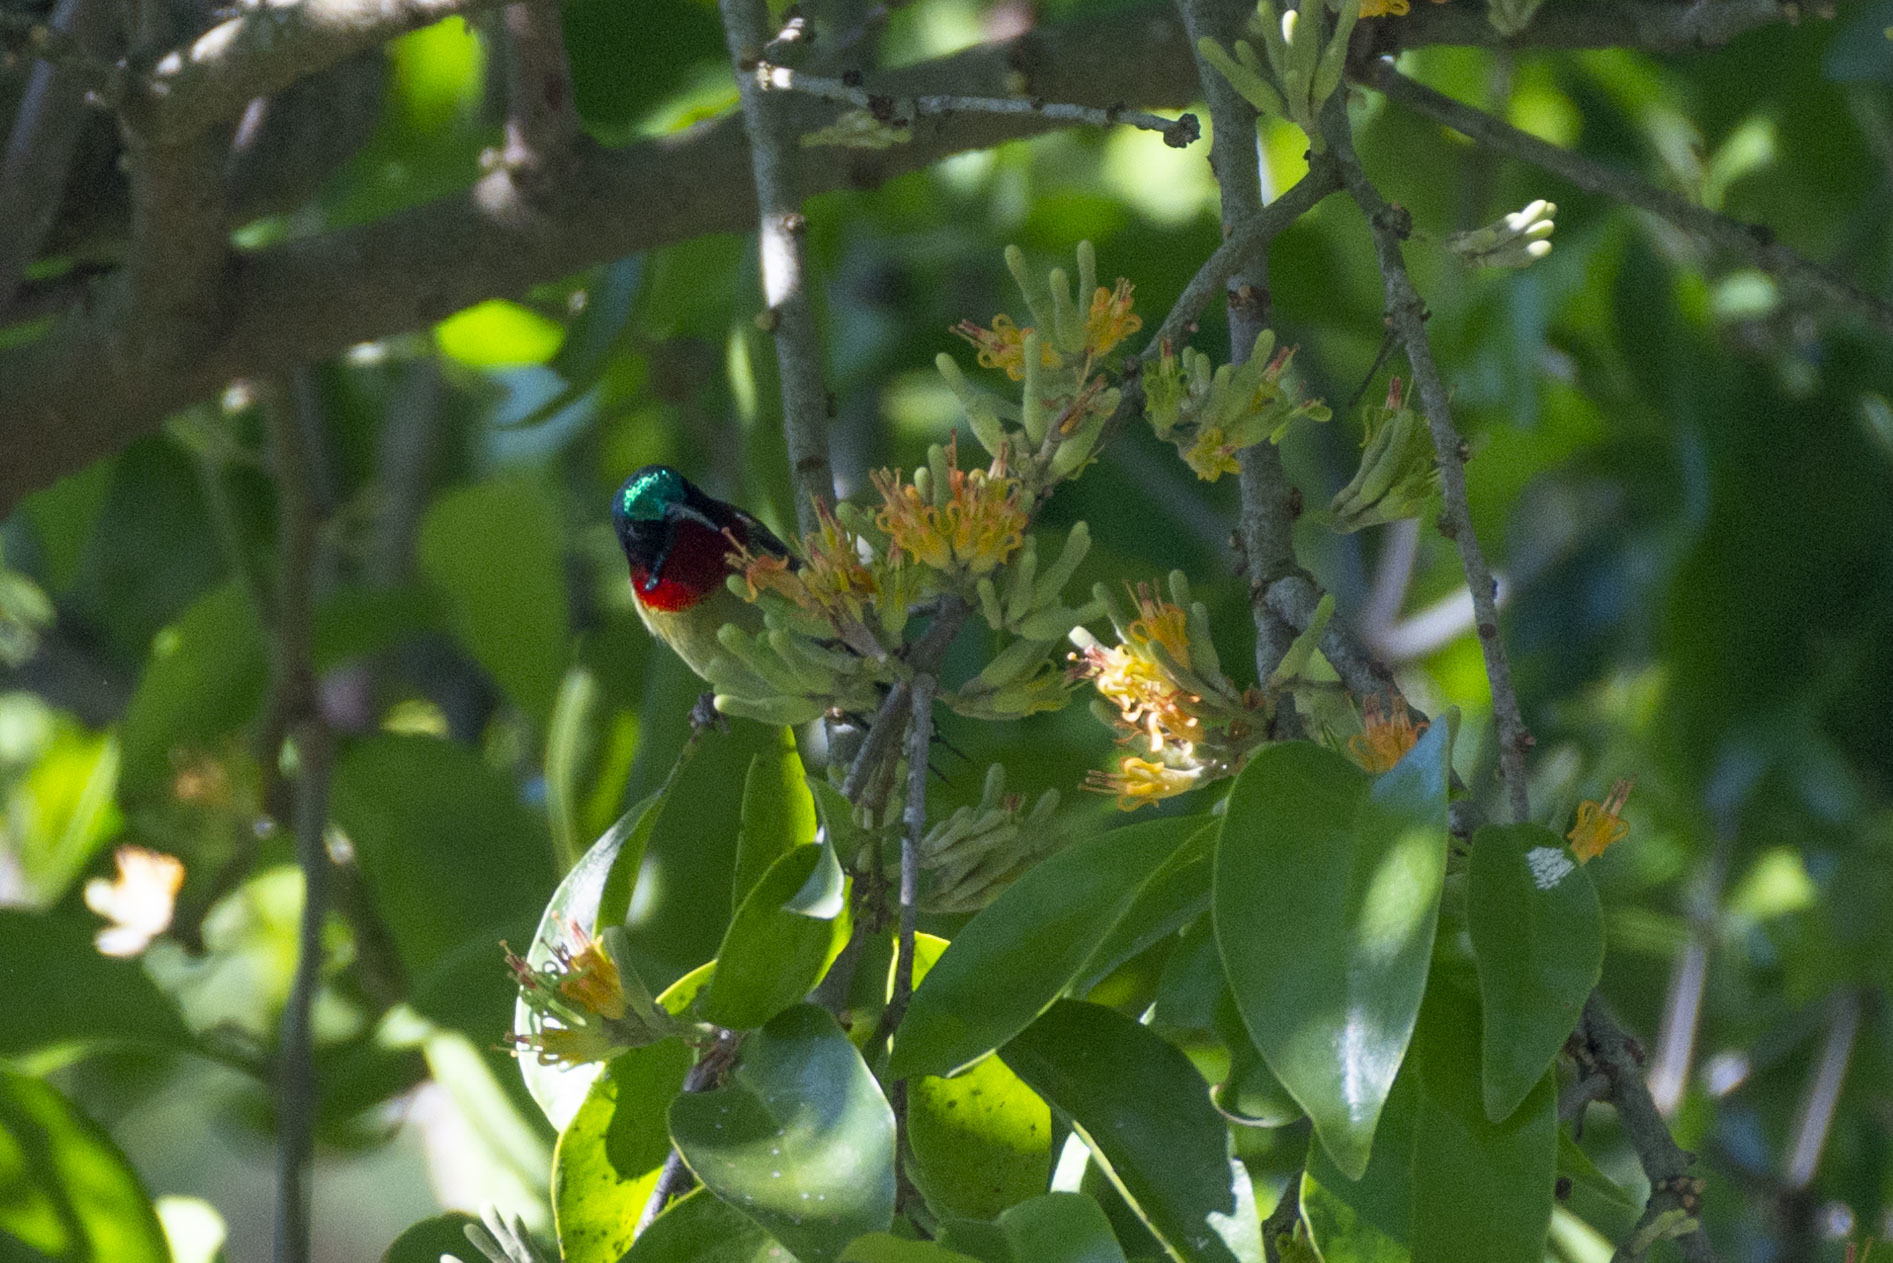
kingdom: Animalia
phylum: Chordata
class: Aves
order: Passeriformes
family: Nectariniidae
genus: Aethopyga
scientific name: Aethopyga christinae
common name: Fork-tailed sunbird
